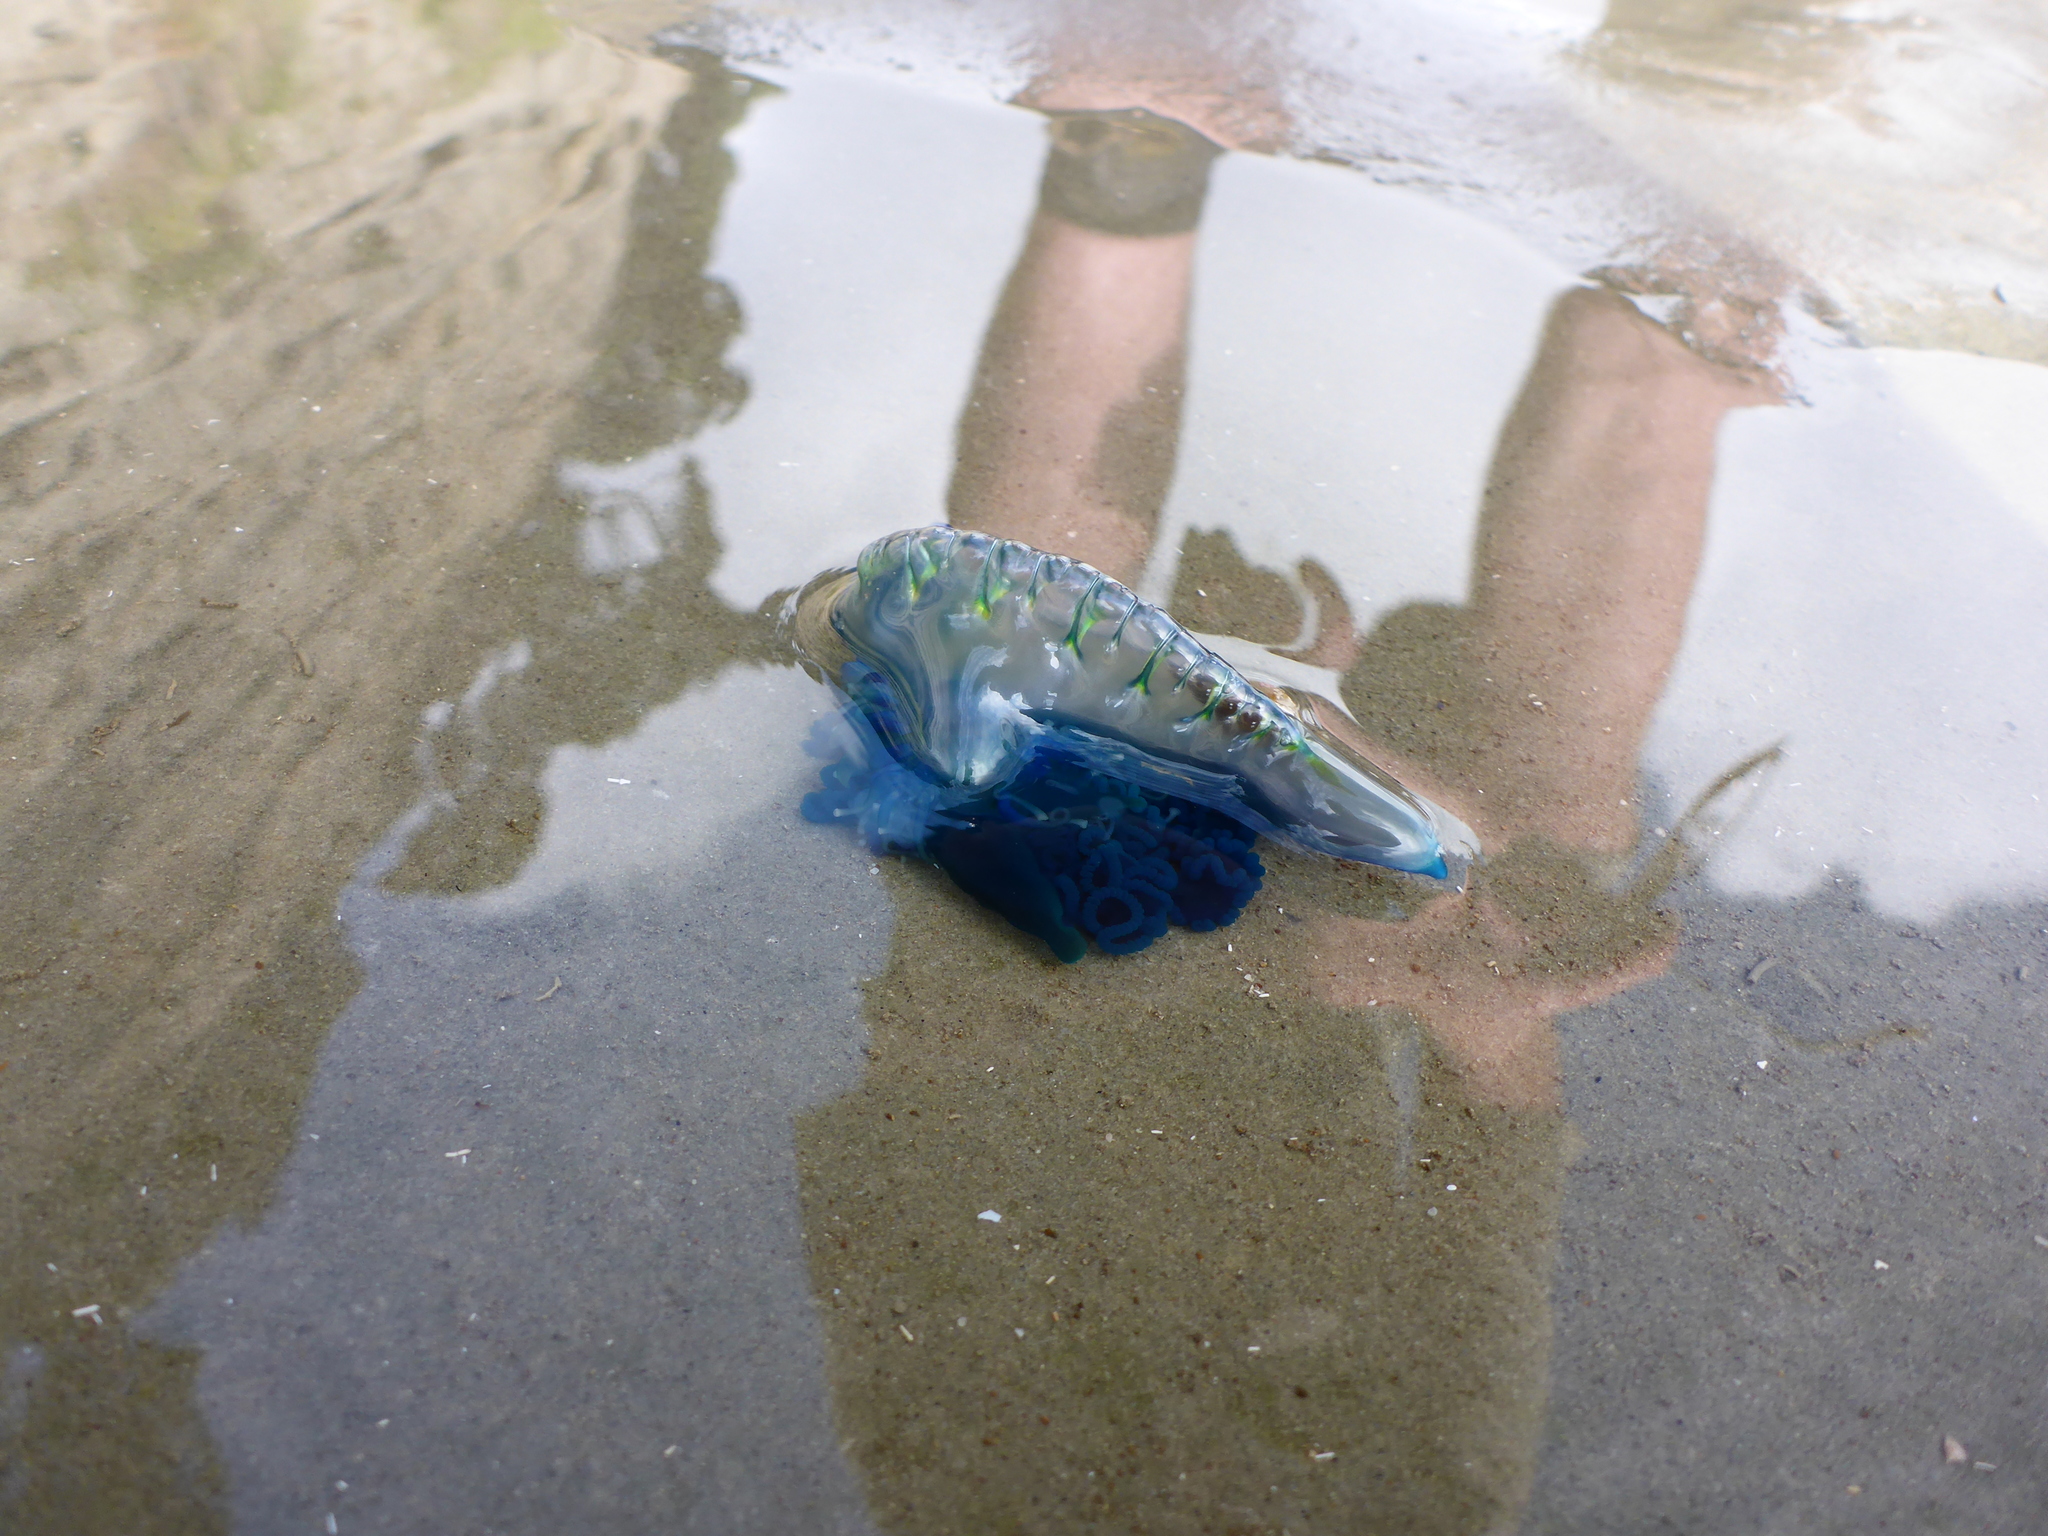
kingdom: Animalia
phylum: Cnidaria
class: Hydrozoa
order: Siphonophorae
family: Physaliidae
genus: Physalia
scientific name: Physalia physalis
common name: Portuguese man-of-war
